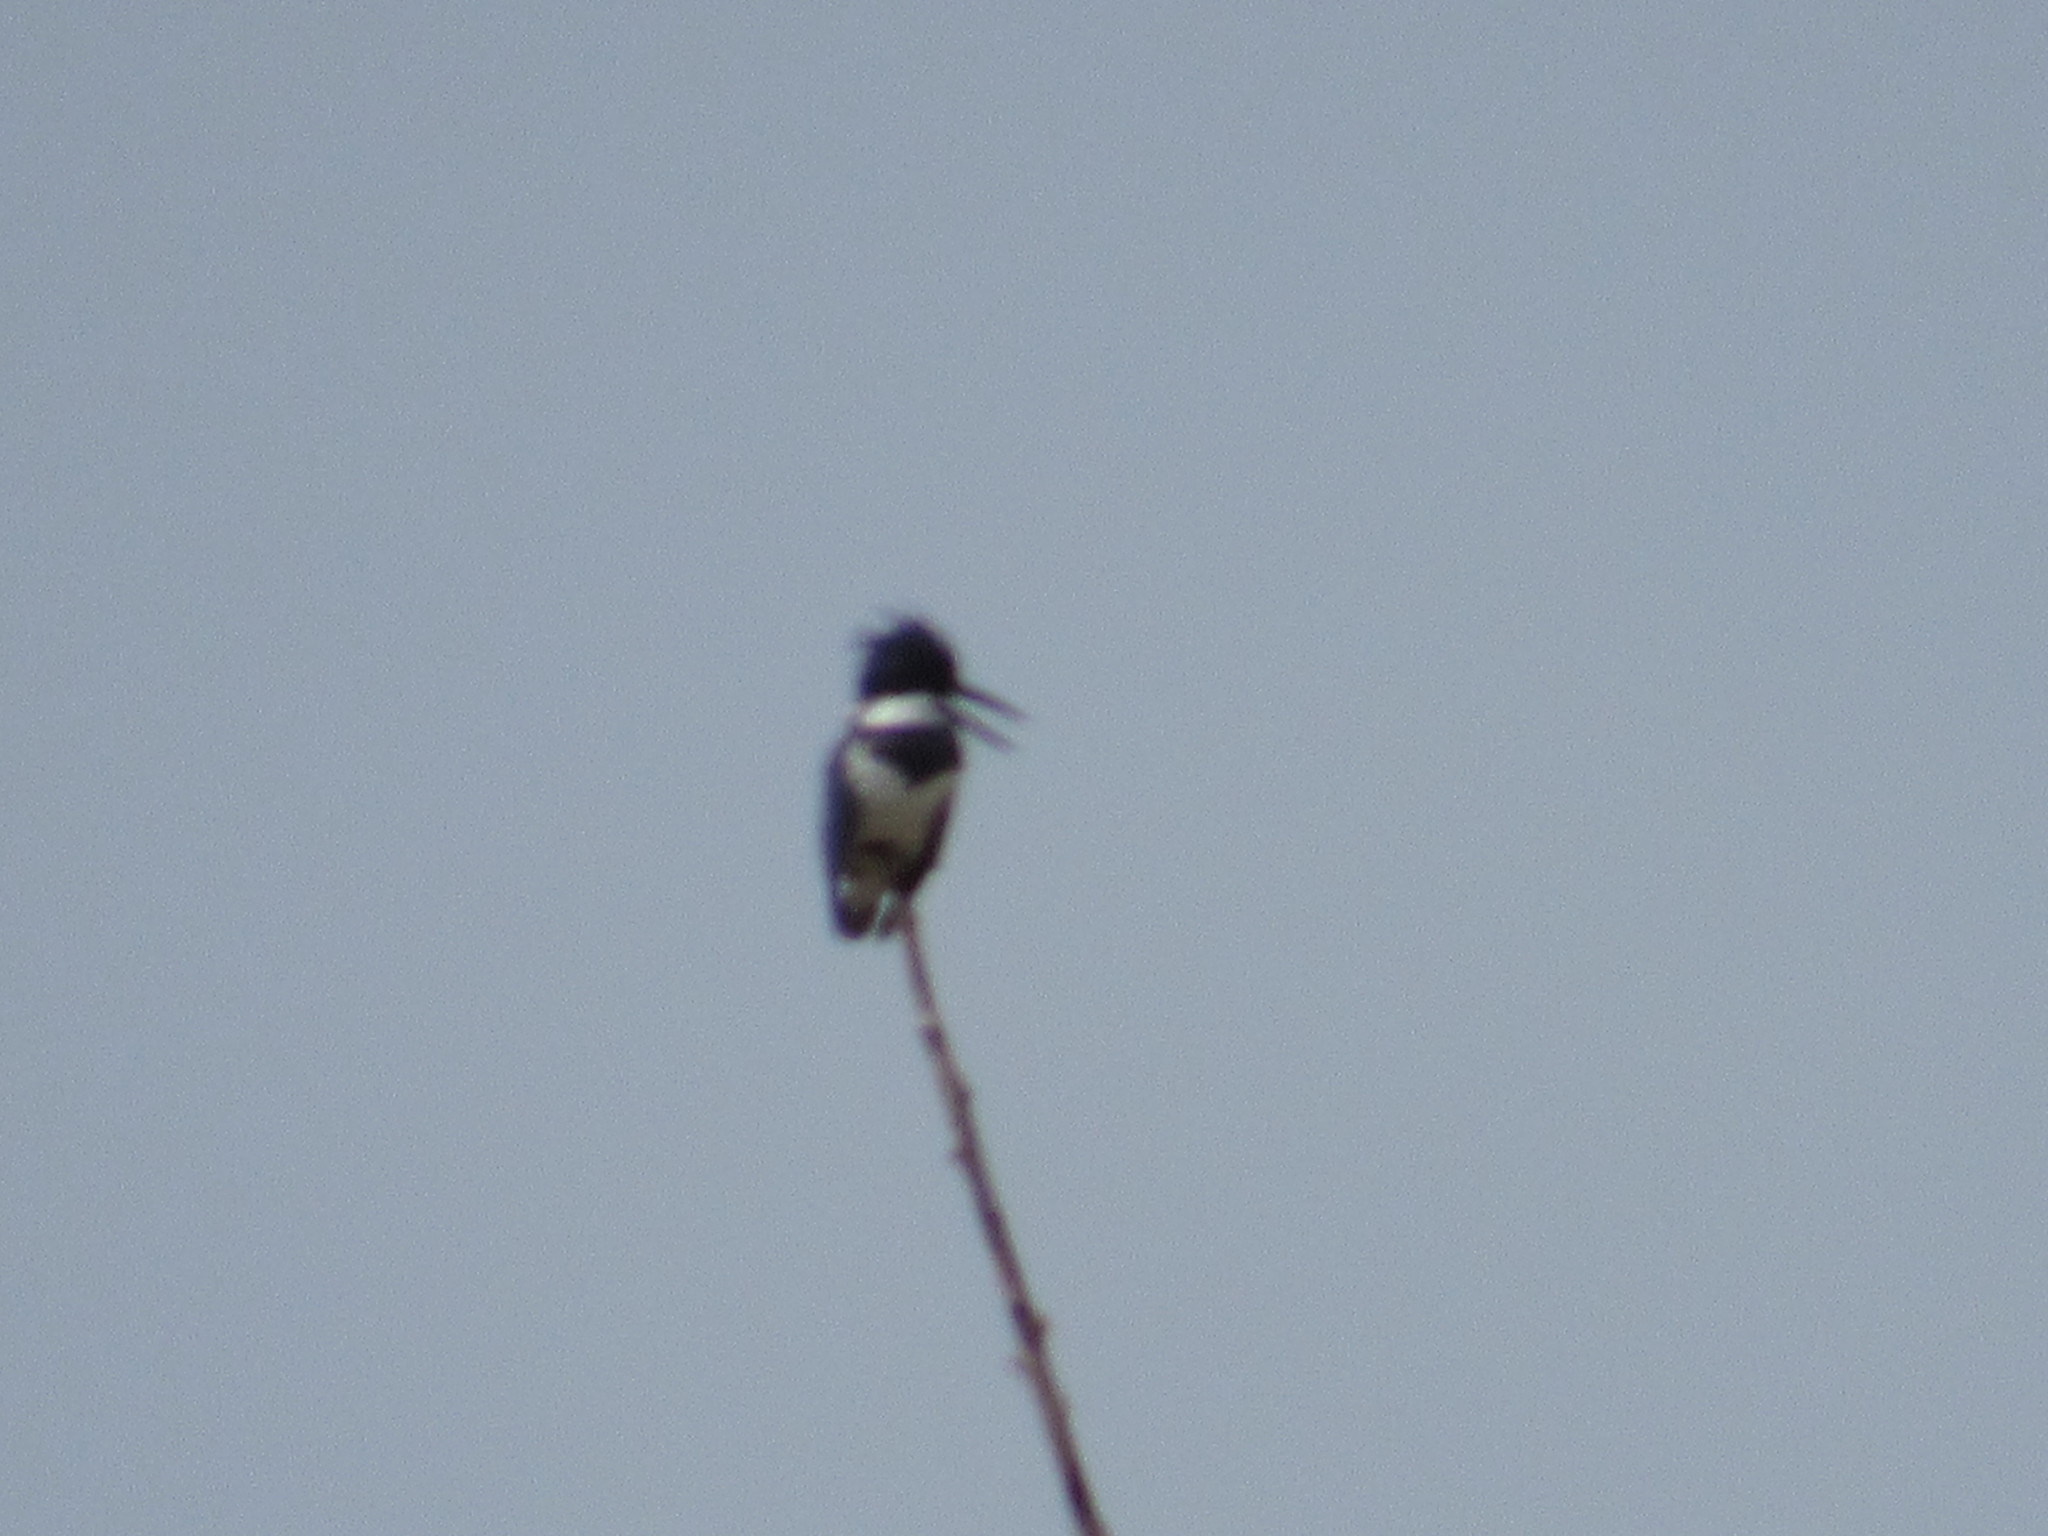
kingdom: Animalia
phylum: Chordata
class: Aves
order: Coraciiformes
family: Alcedinidae
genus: Megaceryle
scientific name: Megaceryle alcyon
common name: Belted kingfisher
